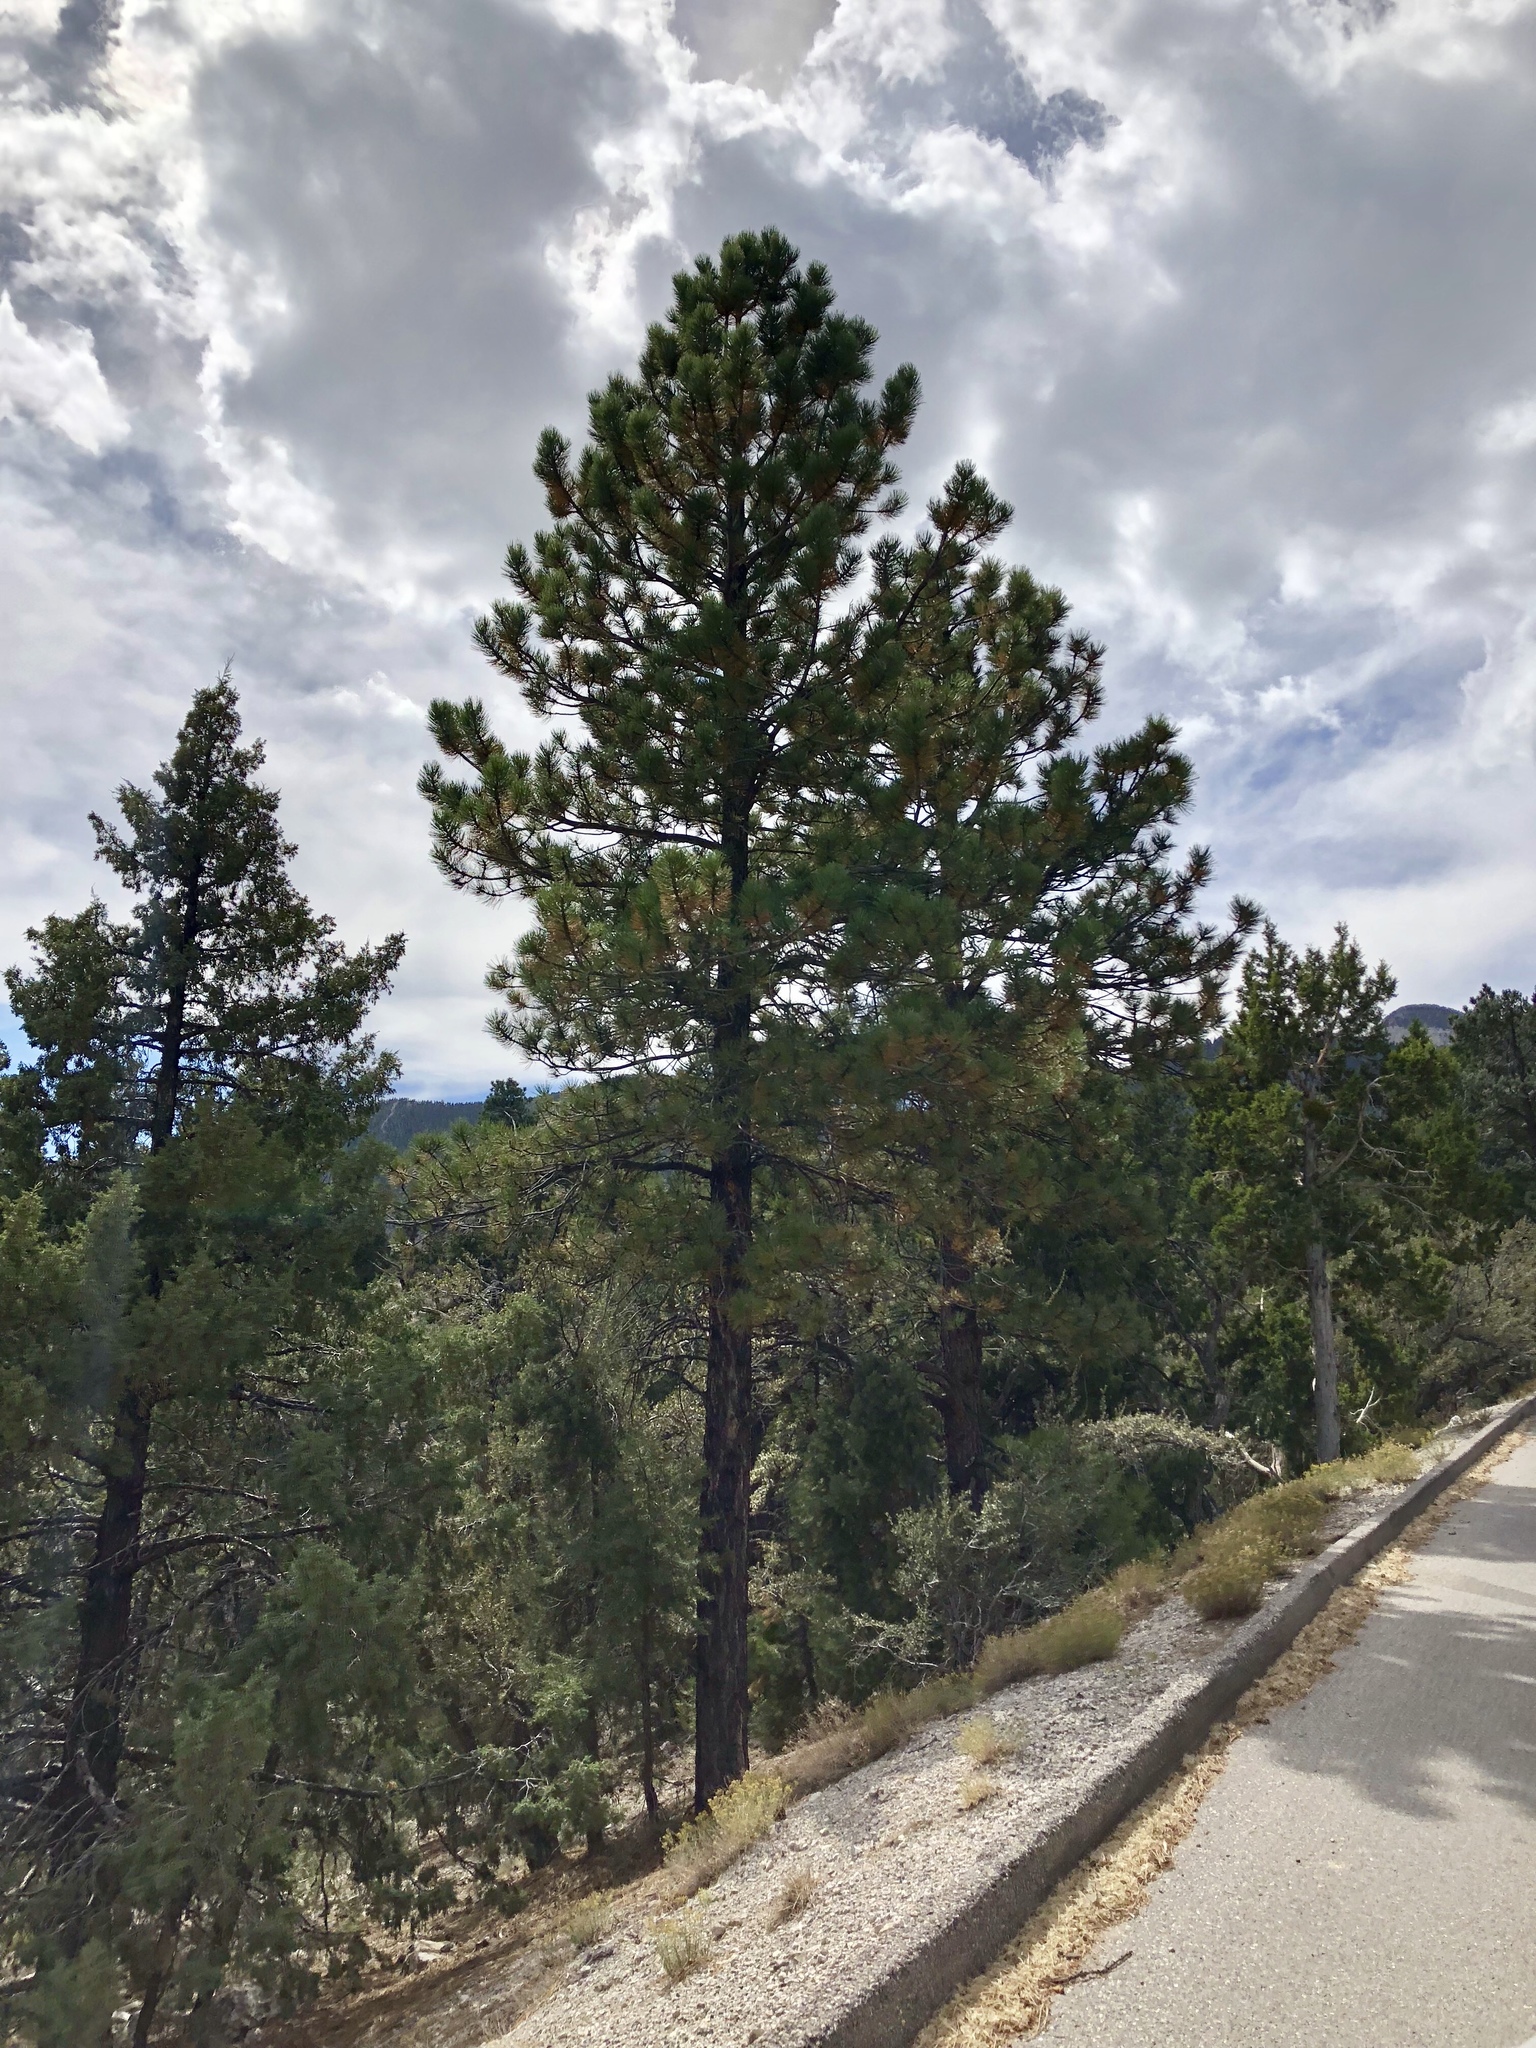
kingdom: Plantae
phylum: Tracheophyta
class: Pinopsida
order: Pinales
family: Pinaceae
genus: Pinus
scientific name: Pinus ponderosa
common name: Western yellow-pine
